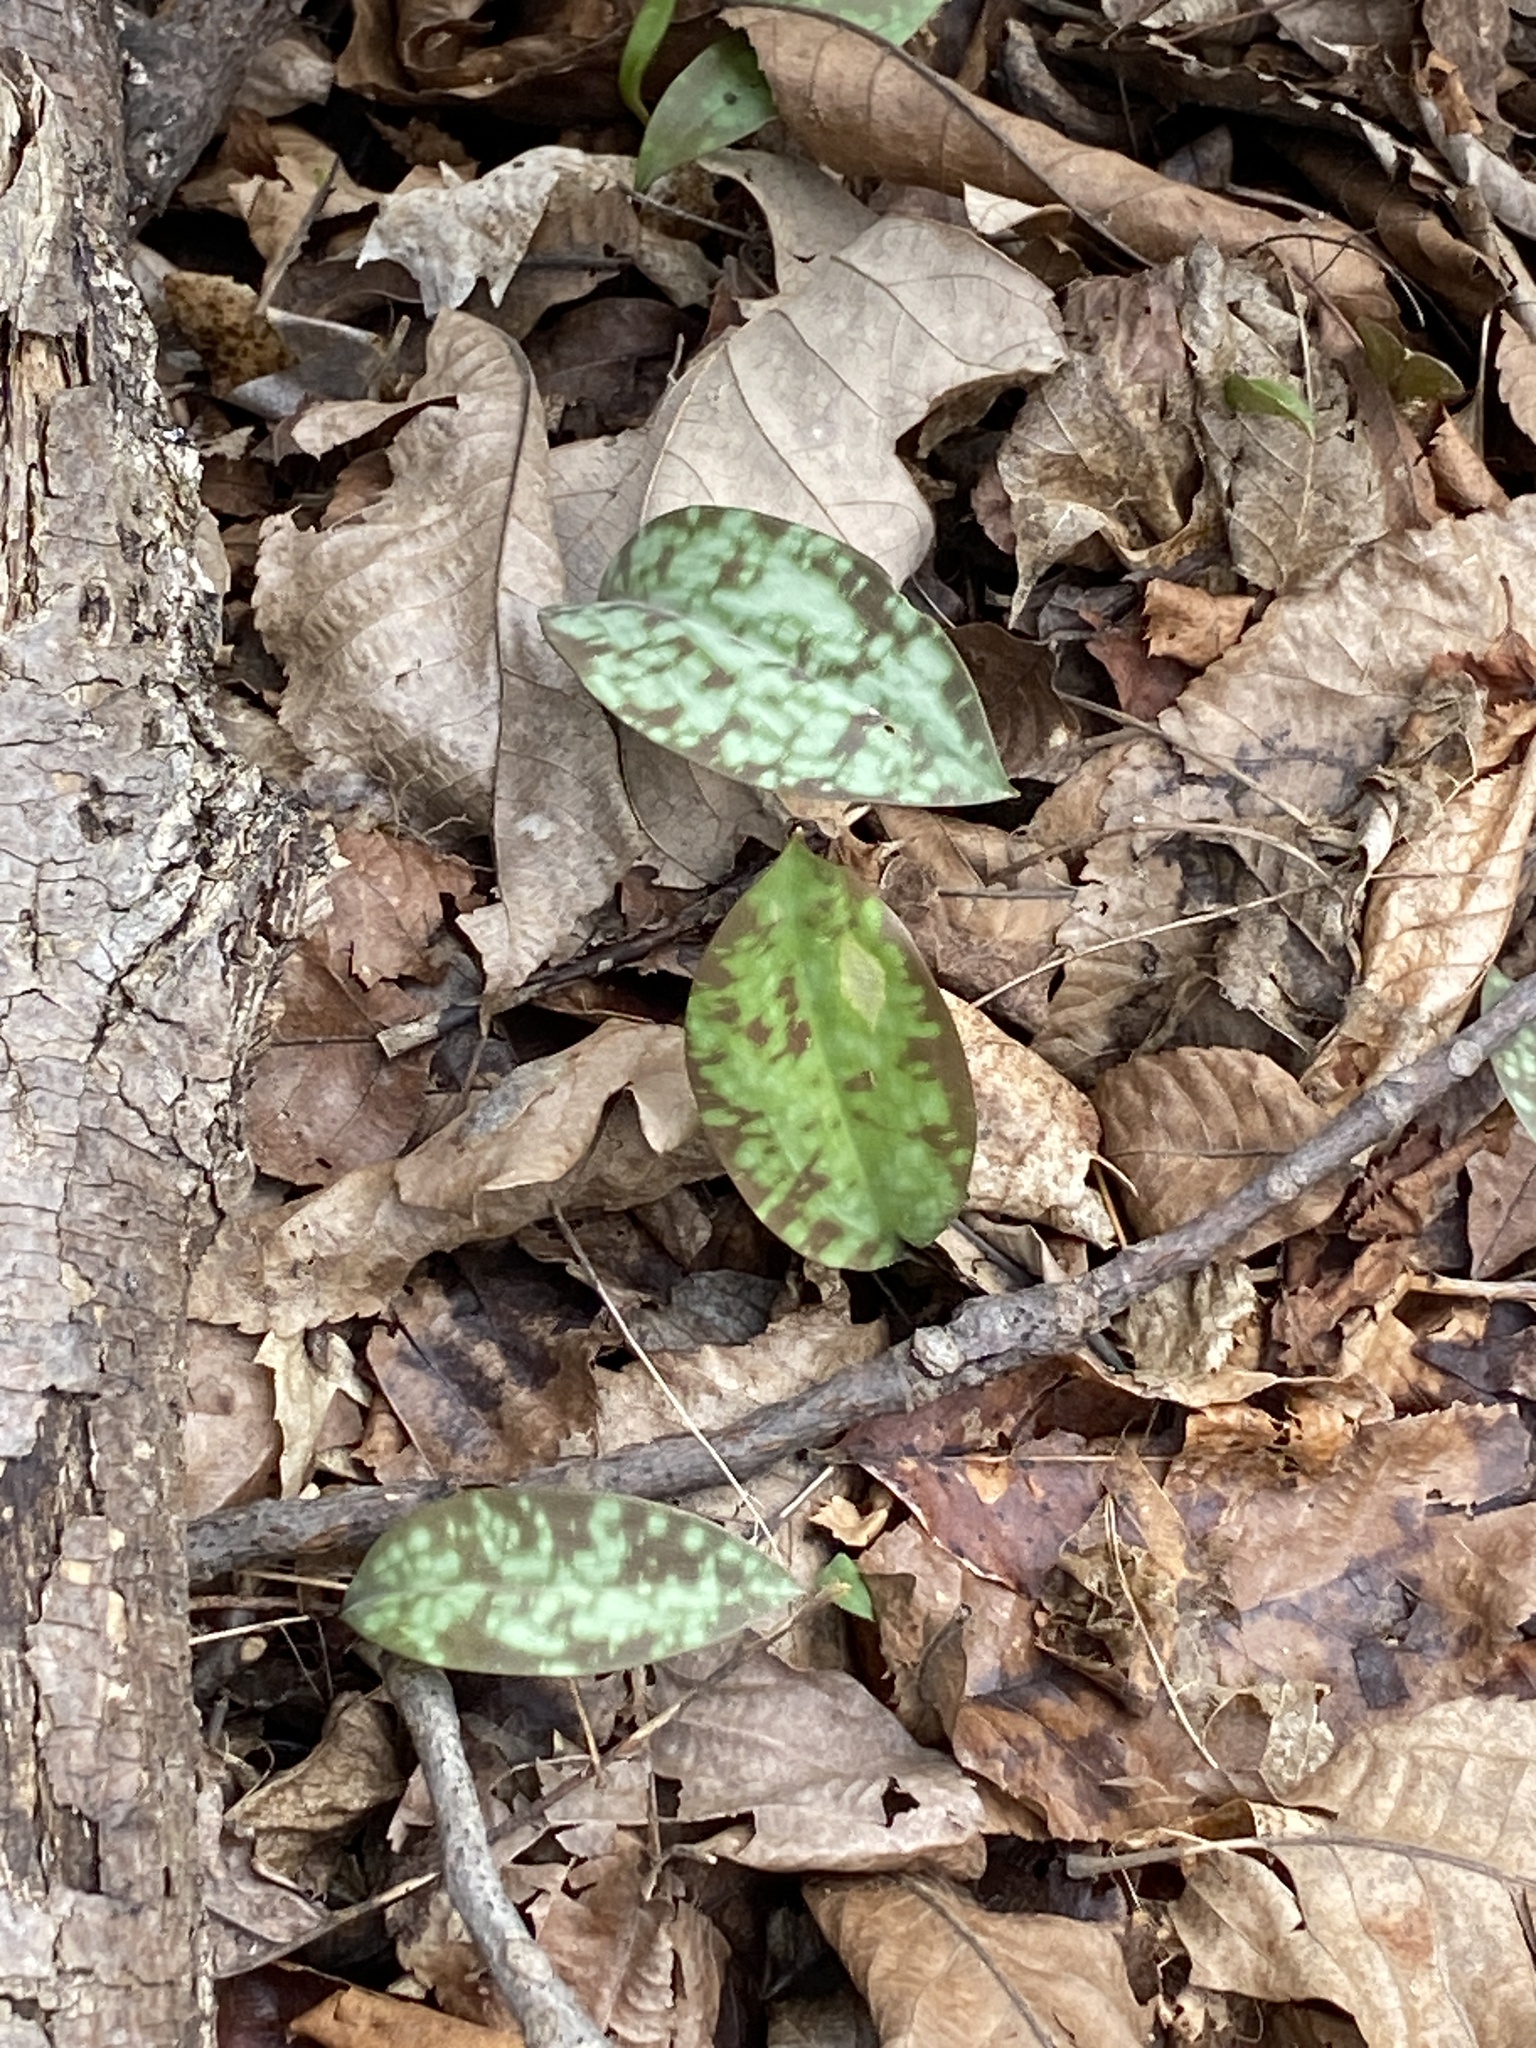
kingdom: Plantae
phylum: Tracheophyta
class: Liliopsida
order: Liliales
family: Liliaceae
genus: Erythronium
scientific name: Erythronium americanum
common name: Yellow adder's-tongue
